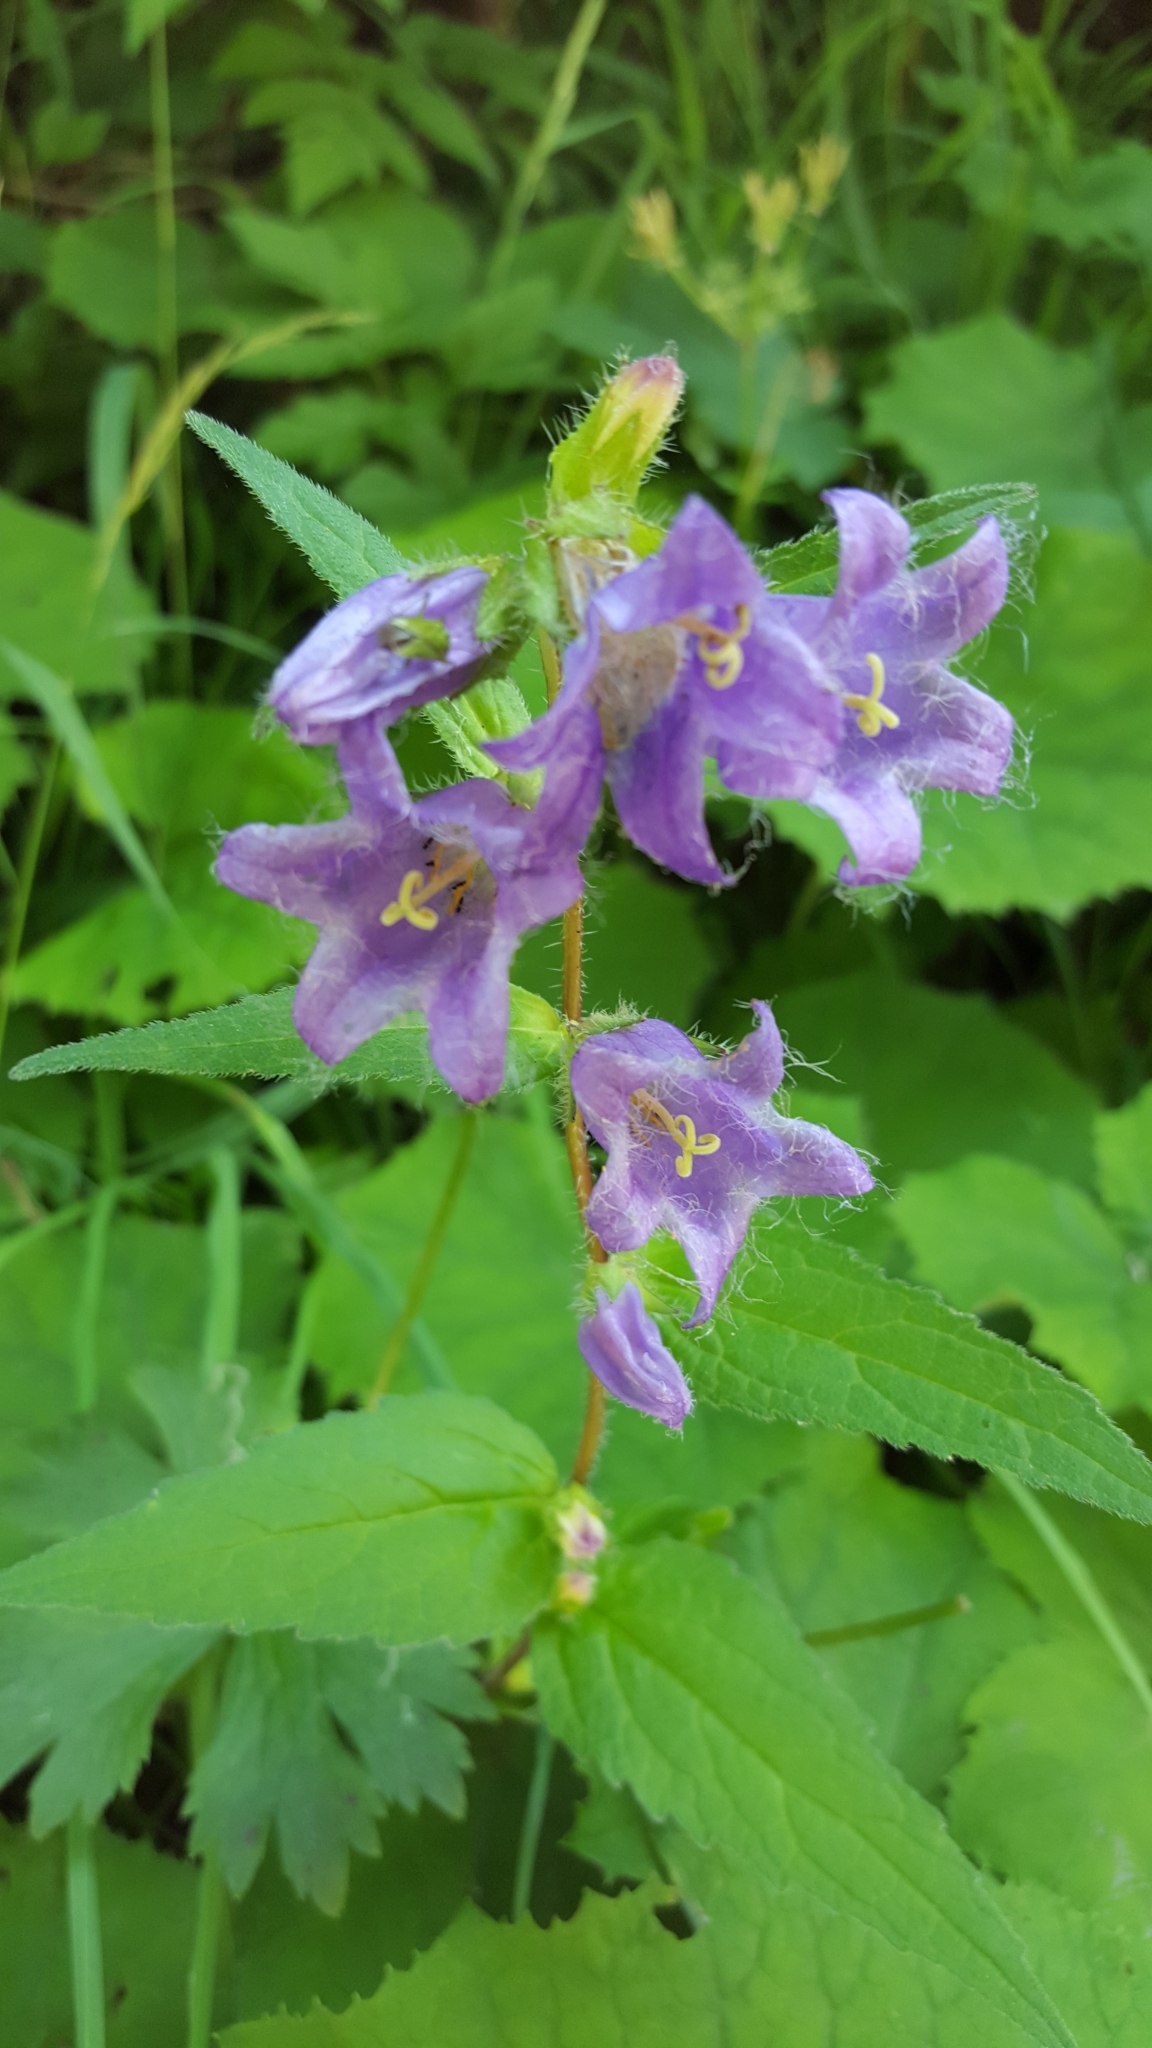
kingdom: Plantae
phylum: Tracheophyta
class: Magnoliopsida
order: Asterales
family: Campanulaceae
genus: Campanula
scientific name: Campanula trachelium
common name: Nettle-leaved bellflower
